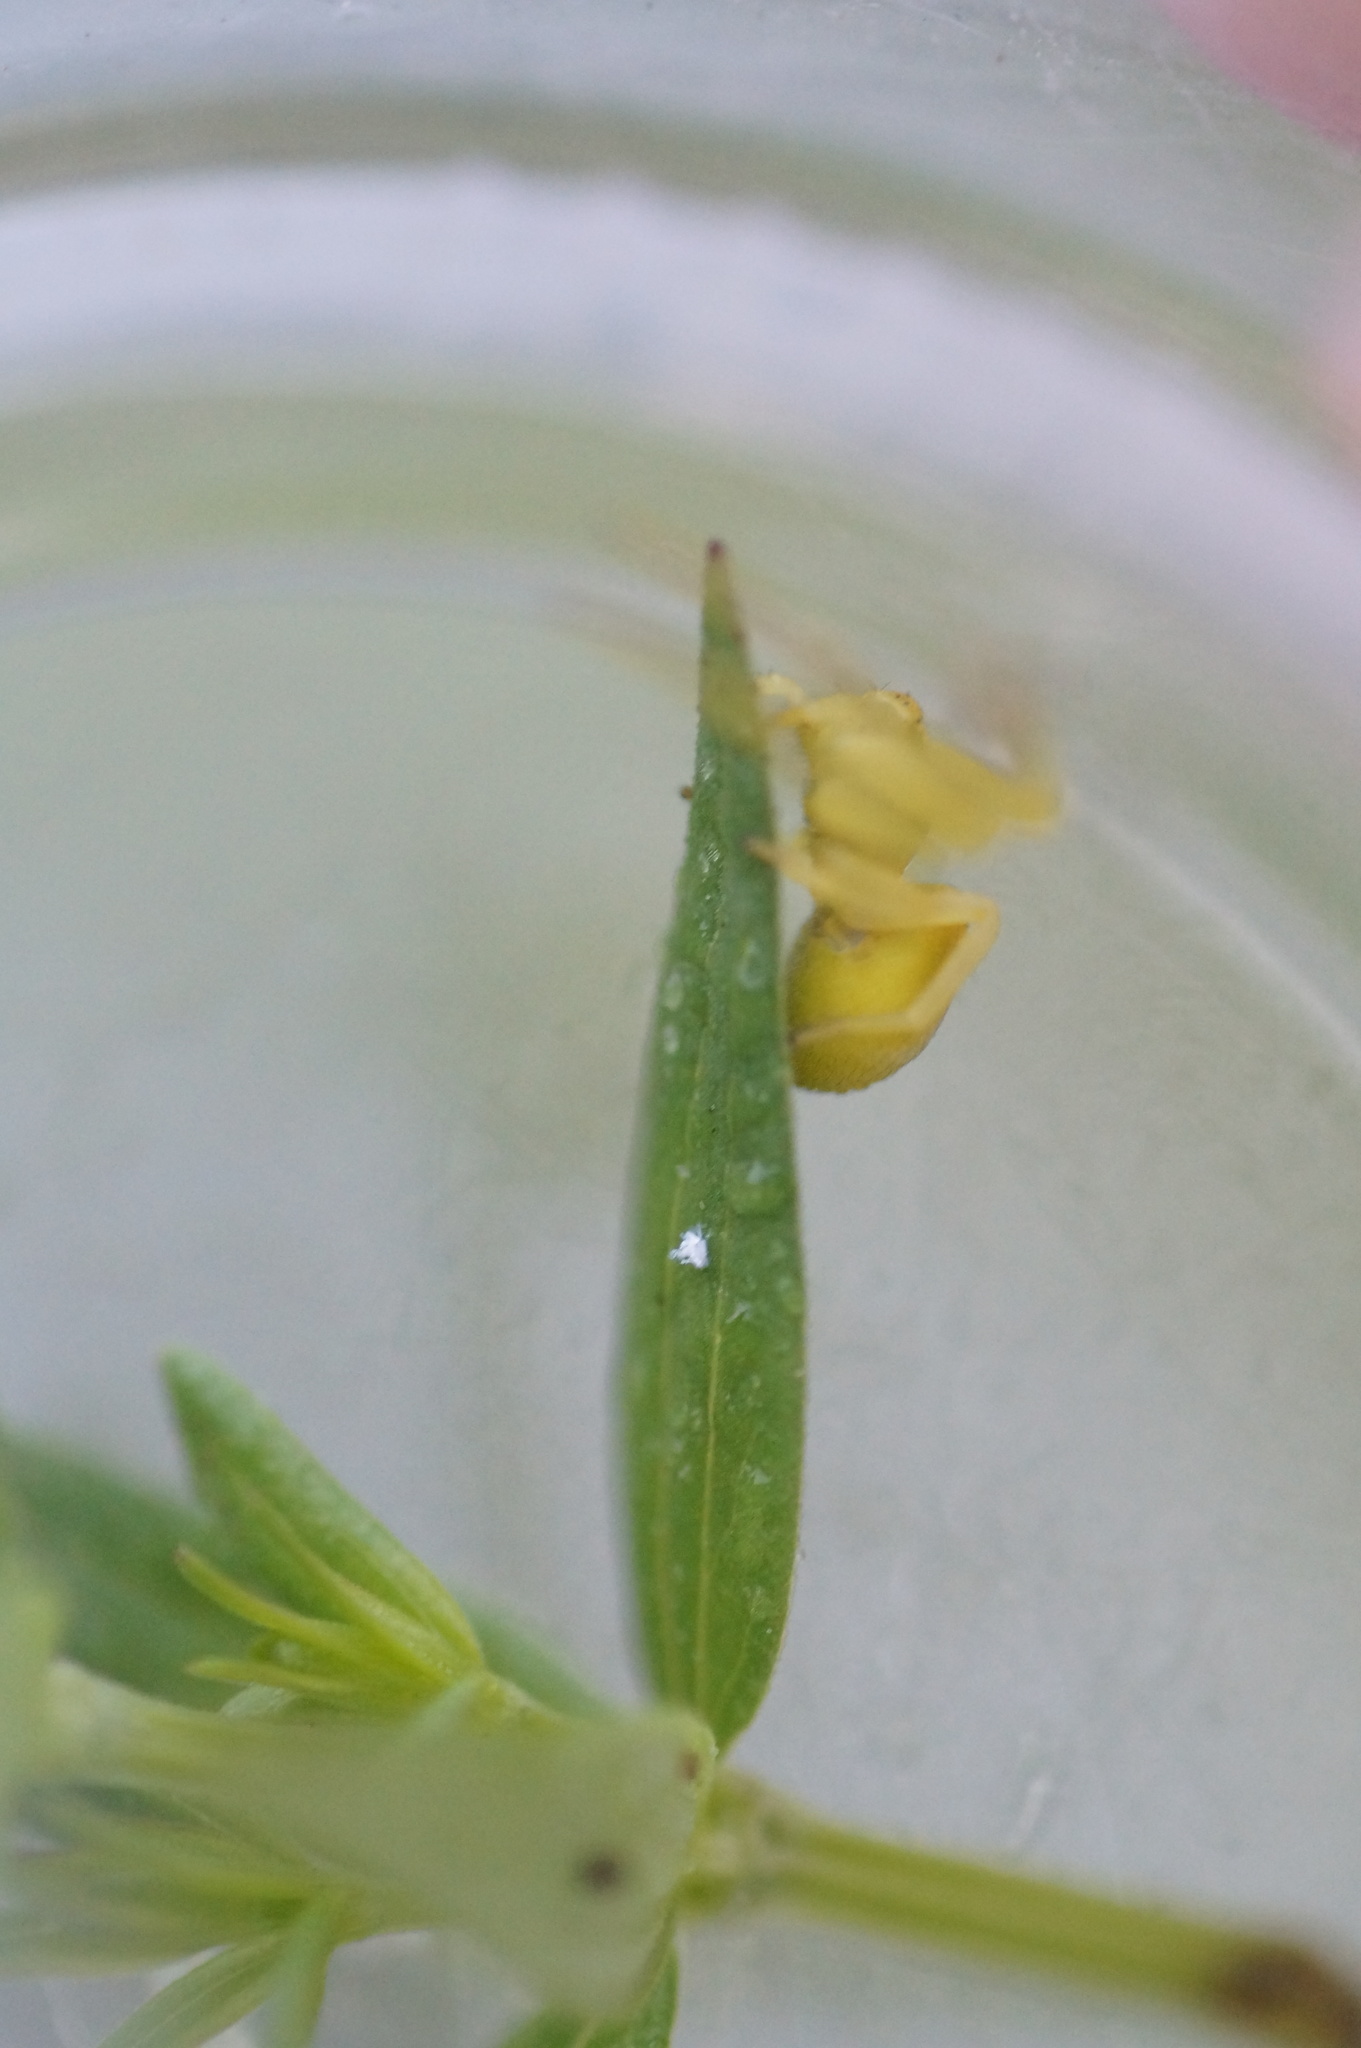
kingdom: Animalia
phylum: Arthropoda
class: Arachnida
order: Araneae
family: Thomisidae
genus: Misumena
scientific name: Misumena vatia
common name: Goldenrod crab spider
